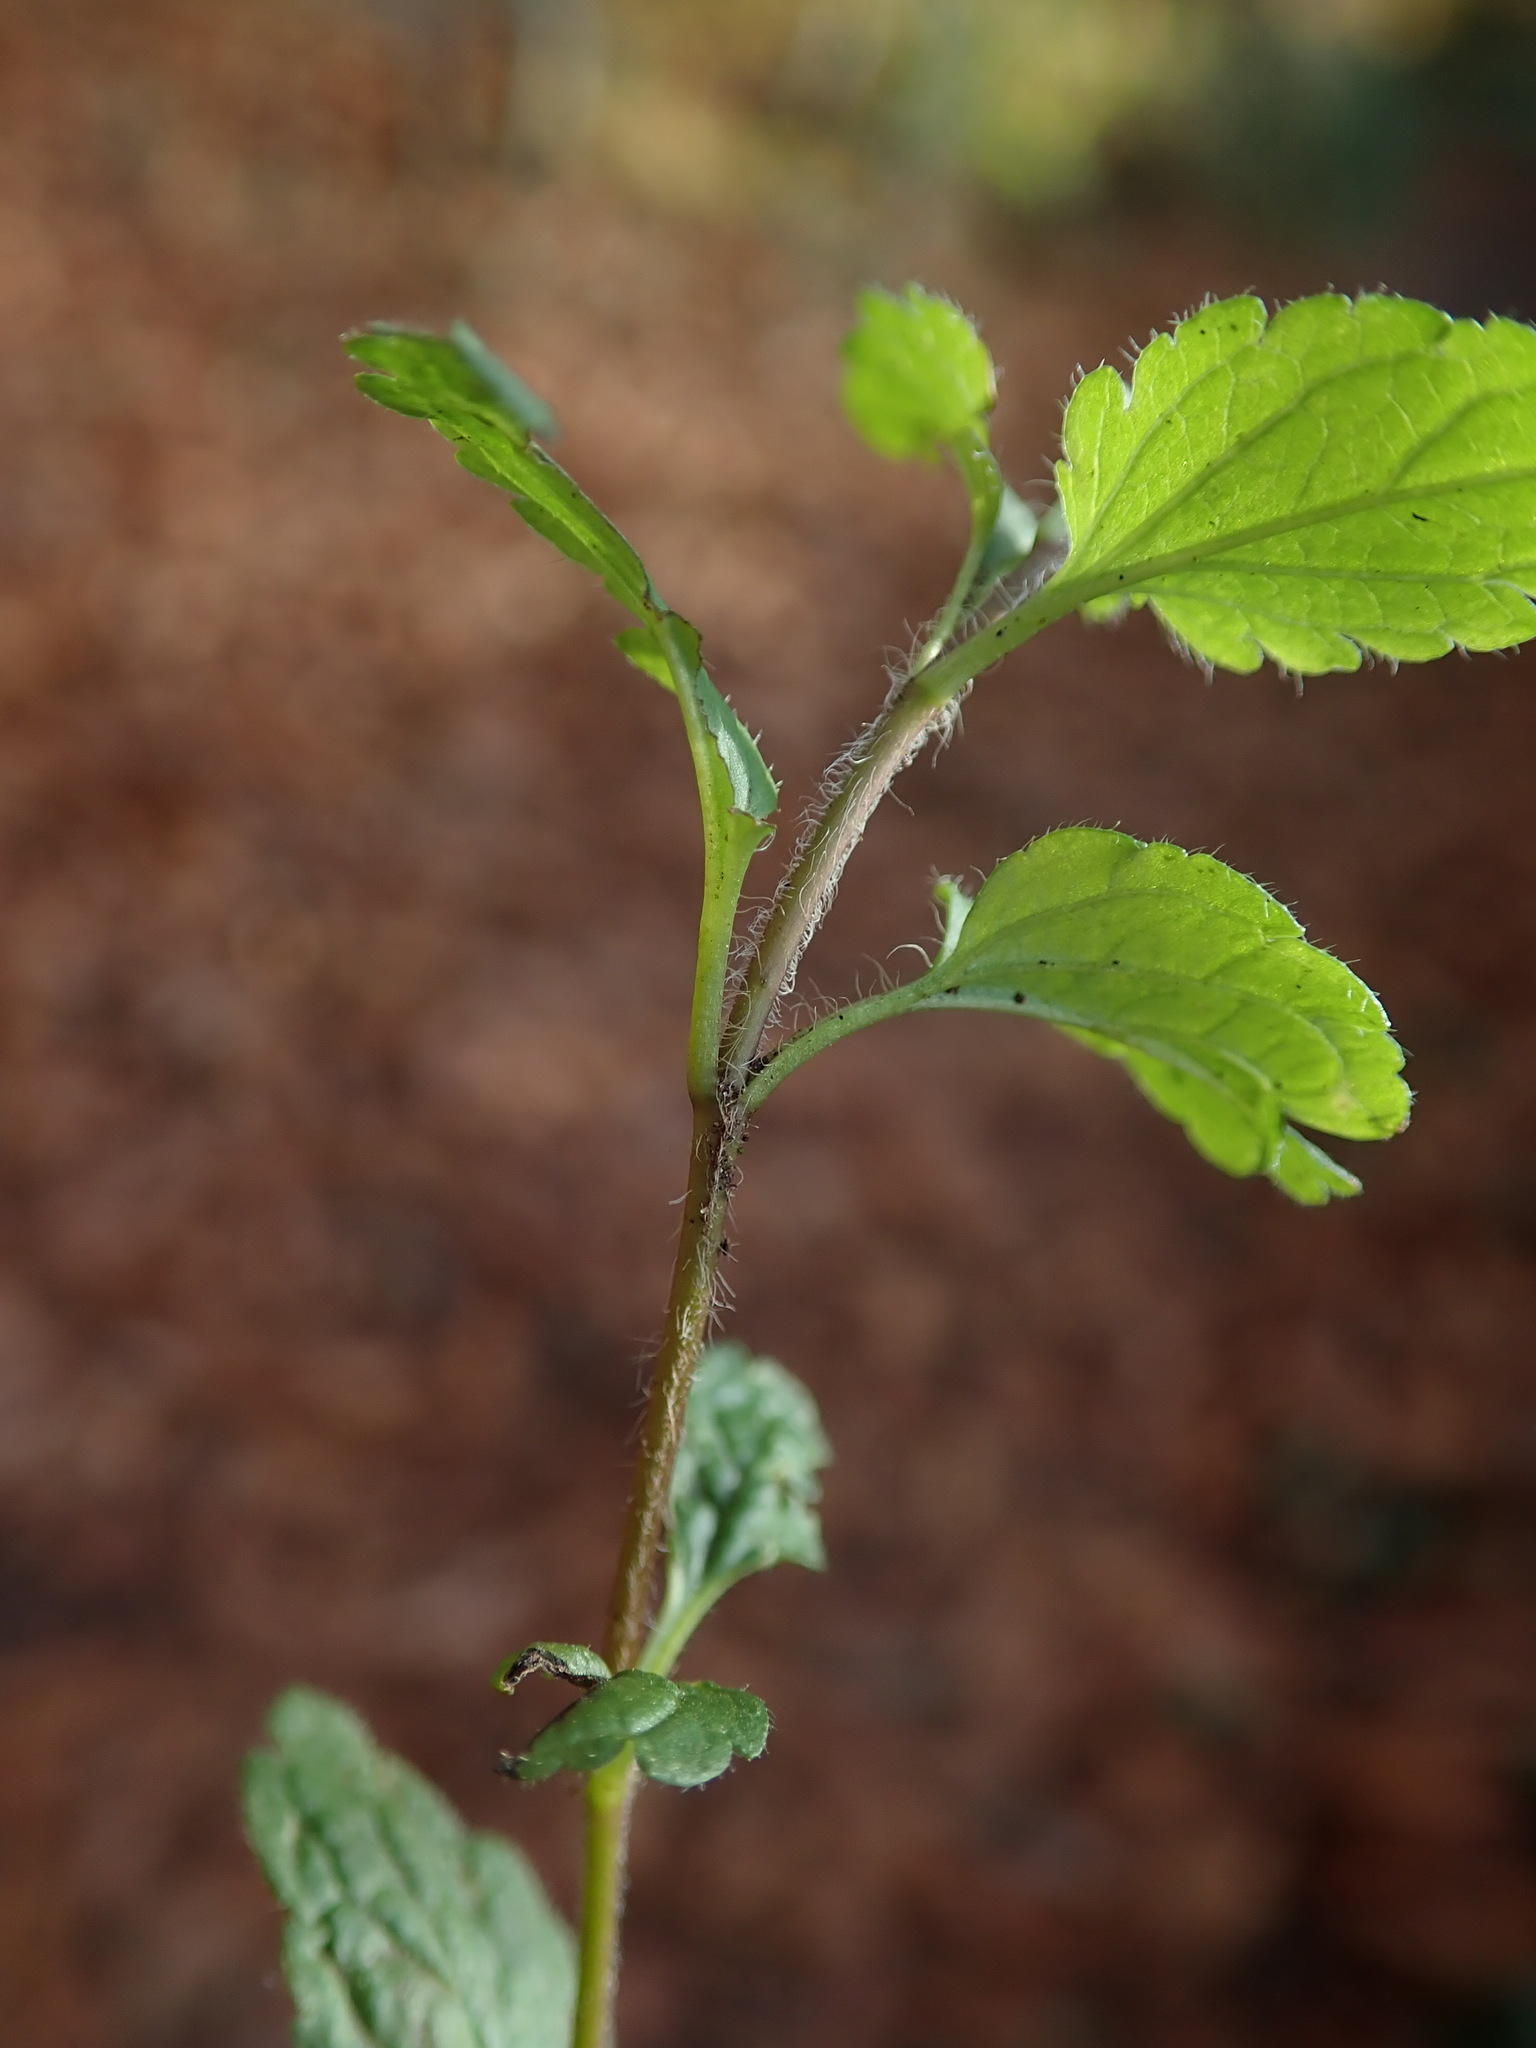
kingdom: Plantae
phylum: Tracheophyta
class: Magnoliopsida
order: Lamiales
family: Plantaginaceae
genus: Veronica
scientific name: Veronica chamaedrys
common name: Germander speedwell
